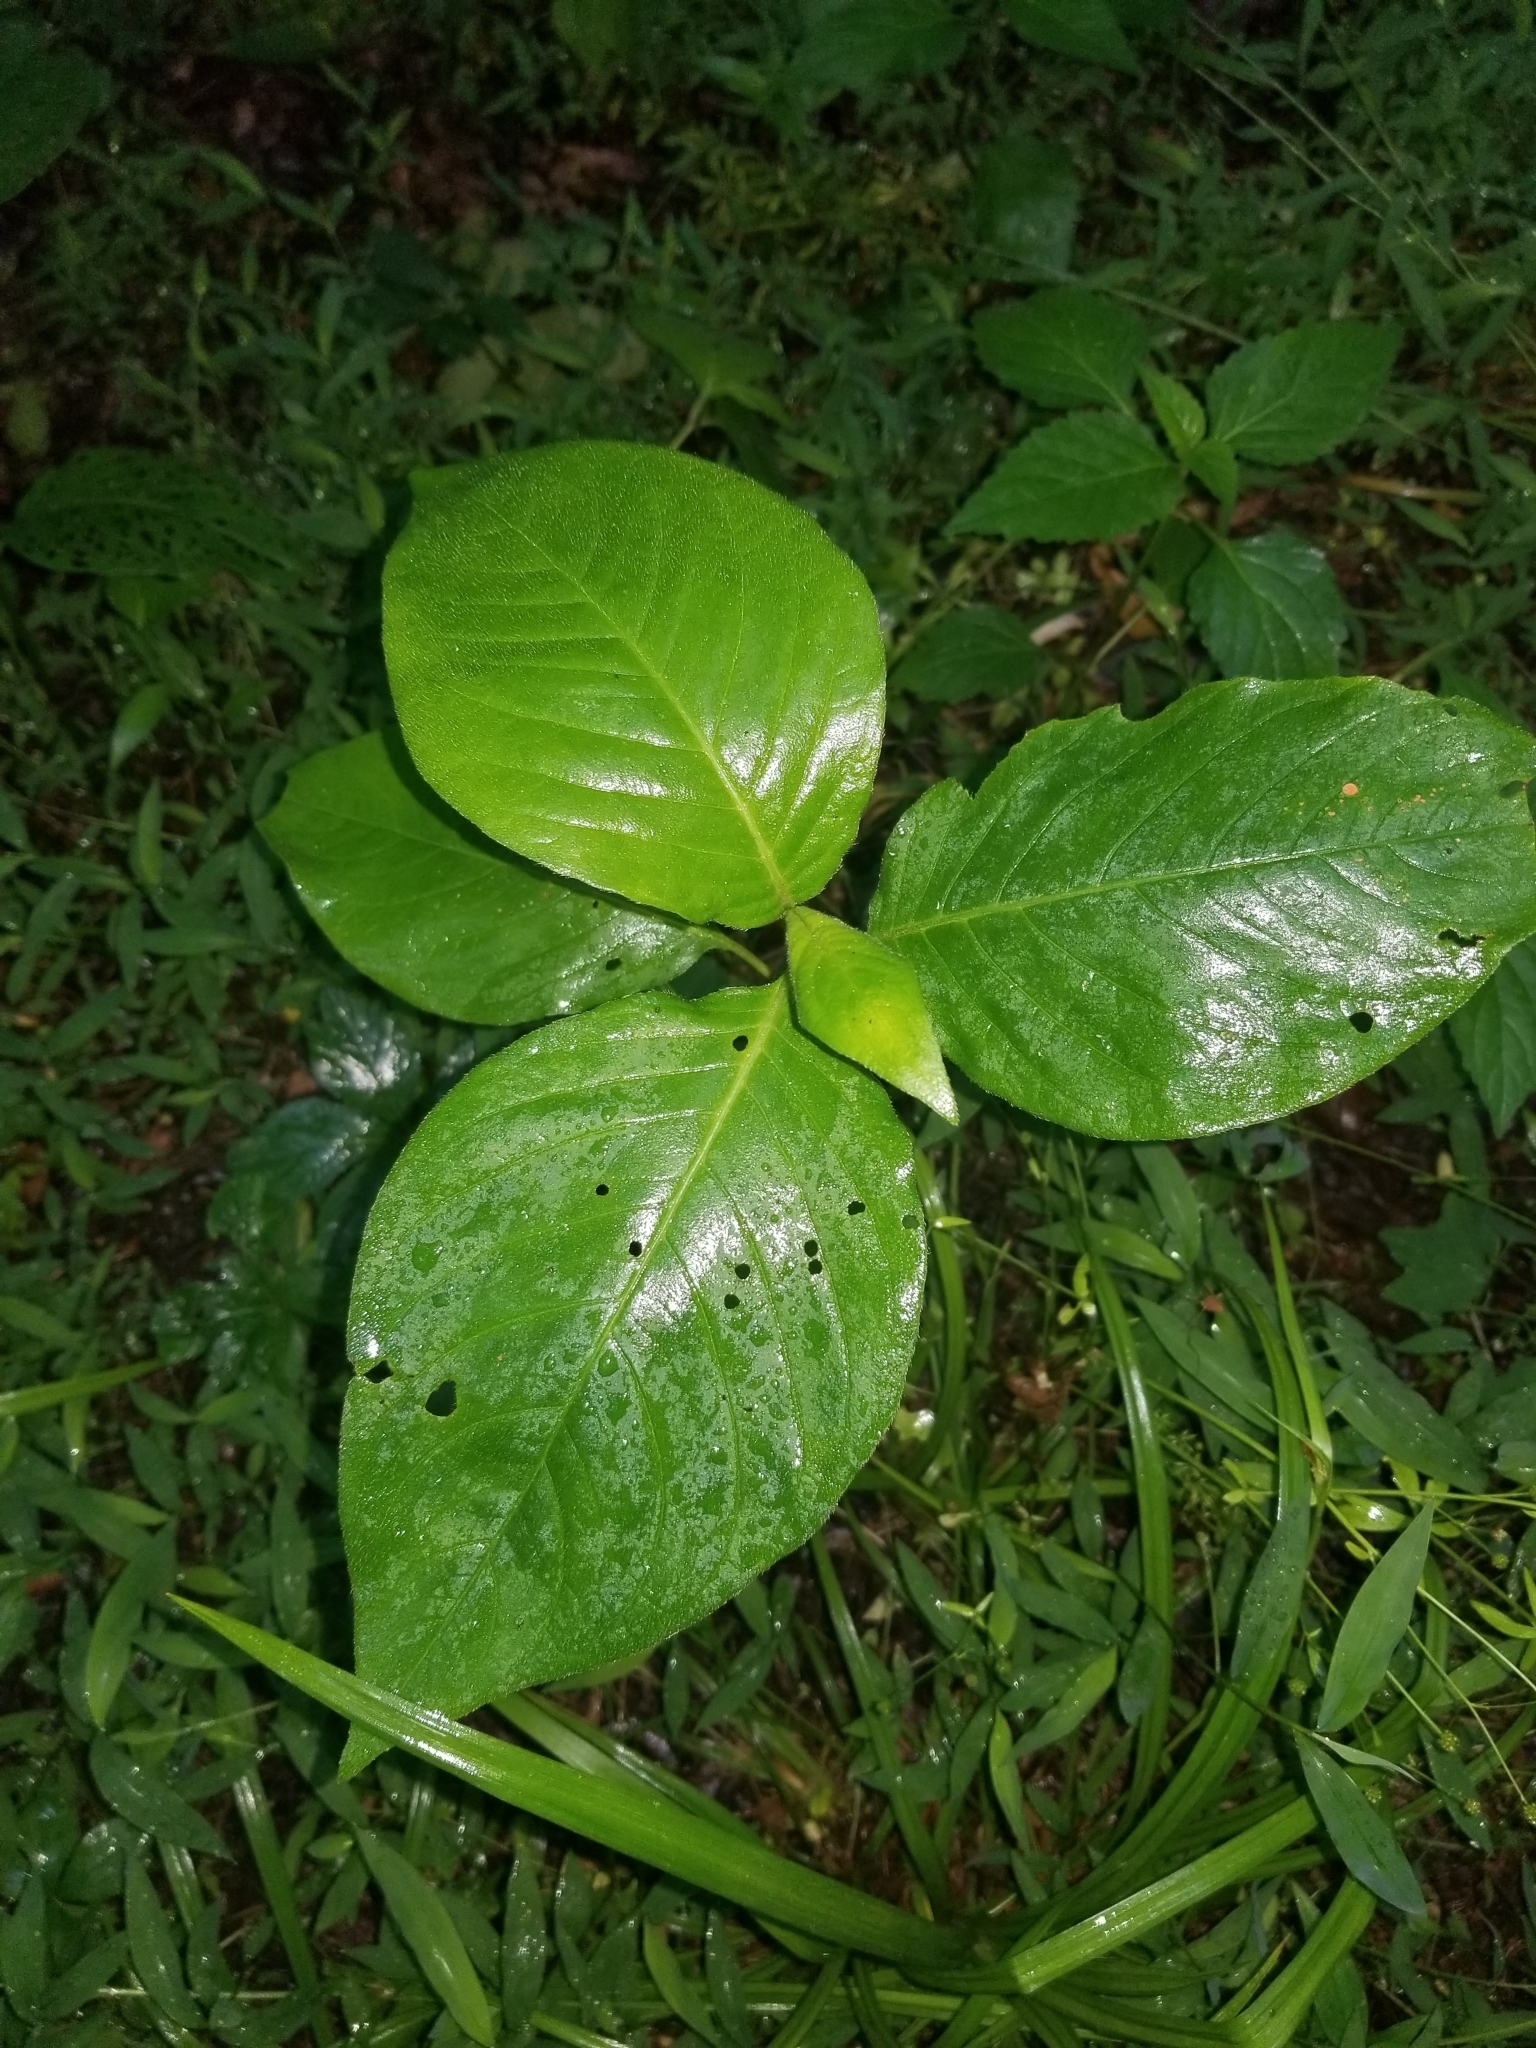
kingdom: Plantae
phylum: Tracheophyta
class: Magnoliopsida
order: Caryophyllales
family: Polygonaceae
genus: Persicaria
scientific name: Persicaria virginiana
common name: Jumpseed
